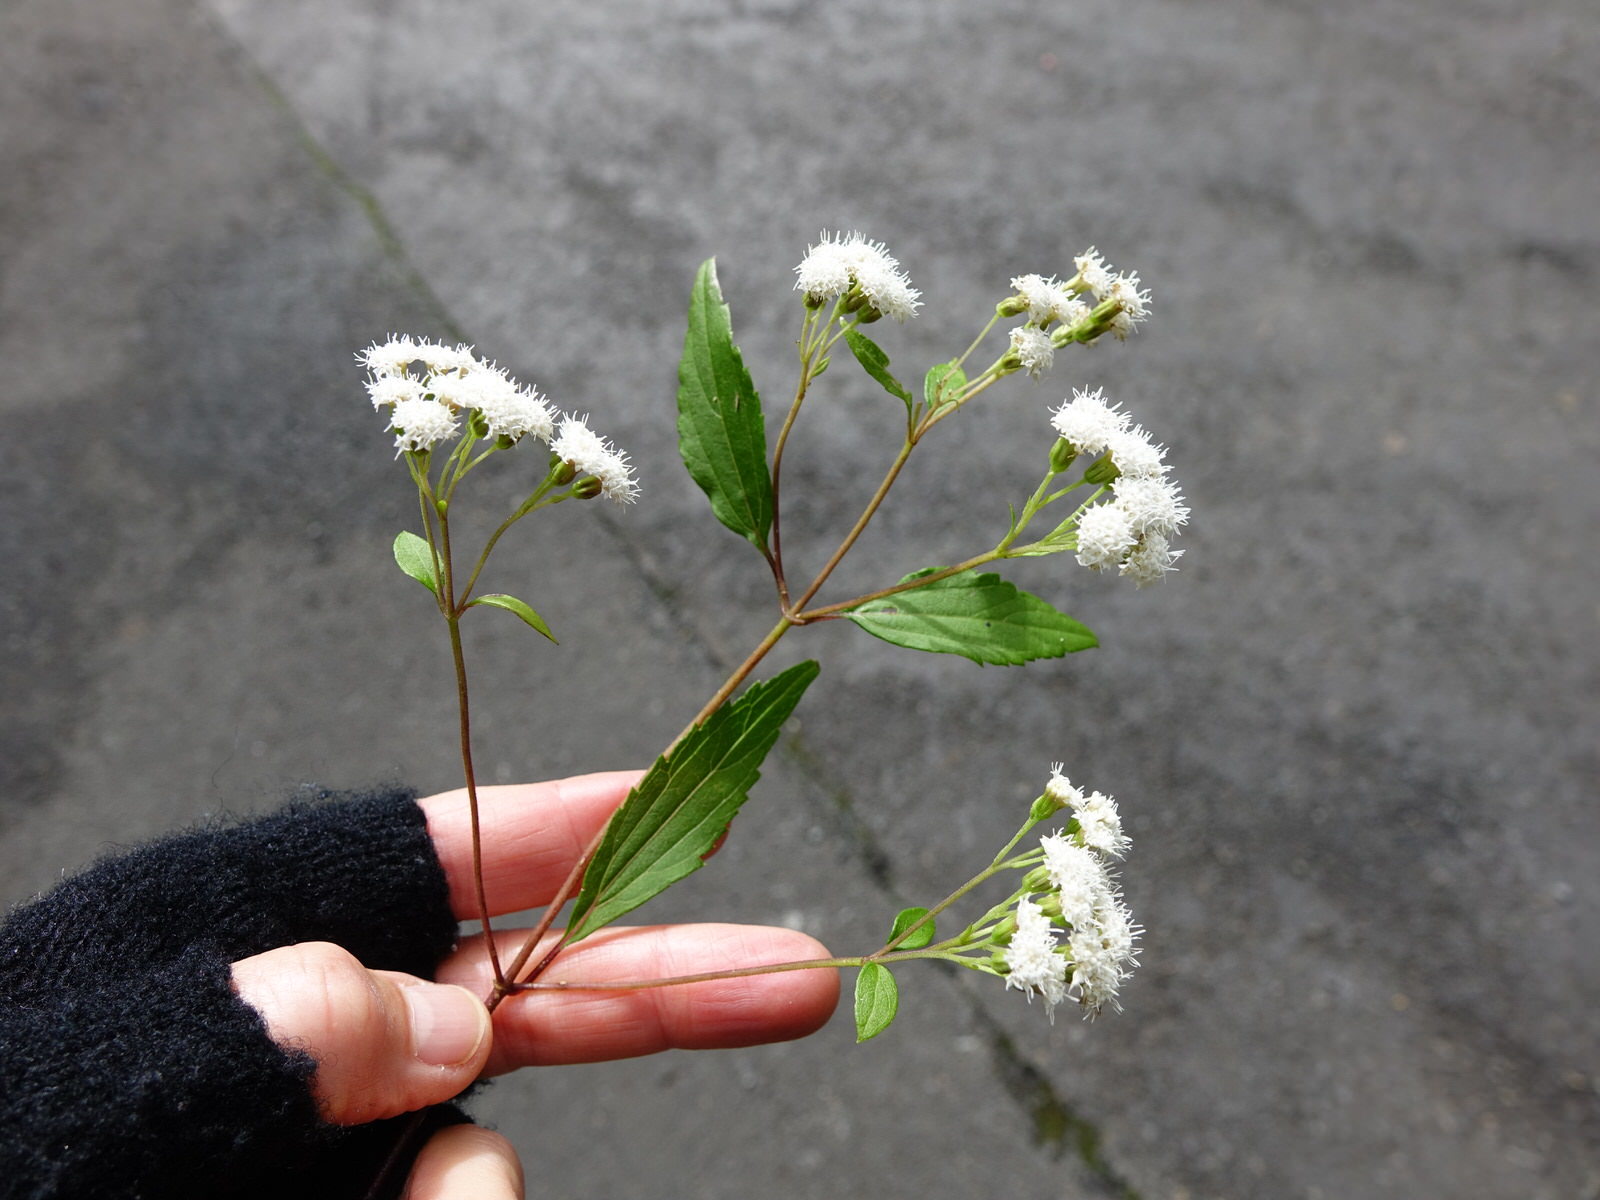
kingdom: Plantae
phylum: Tracheophyta
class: Magnoliopsida
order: Asterales
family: Asteraceae
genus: Ageratina
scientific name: Ageratina riparia
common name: Creeping croftonweed
